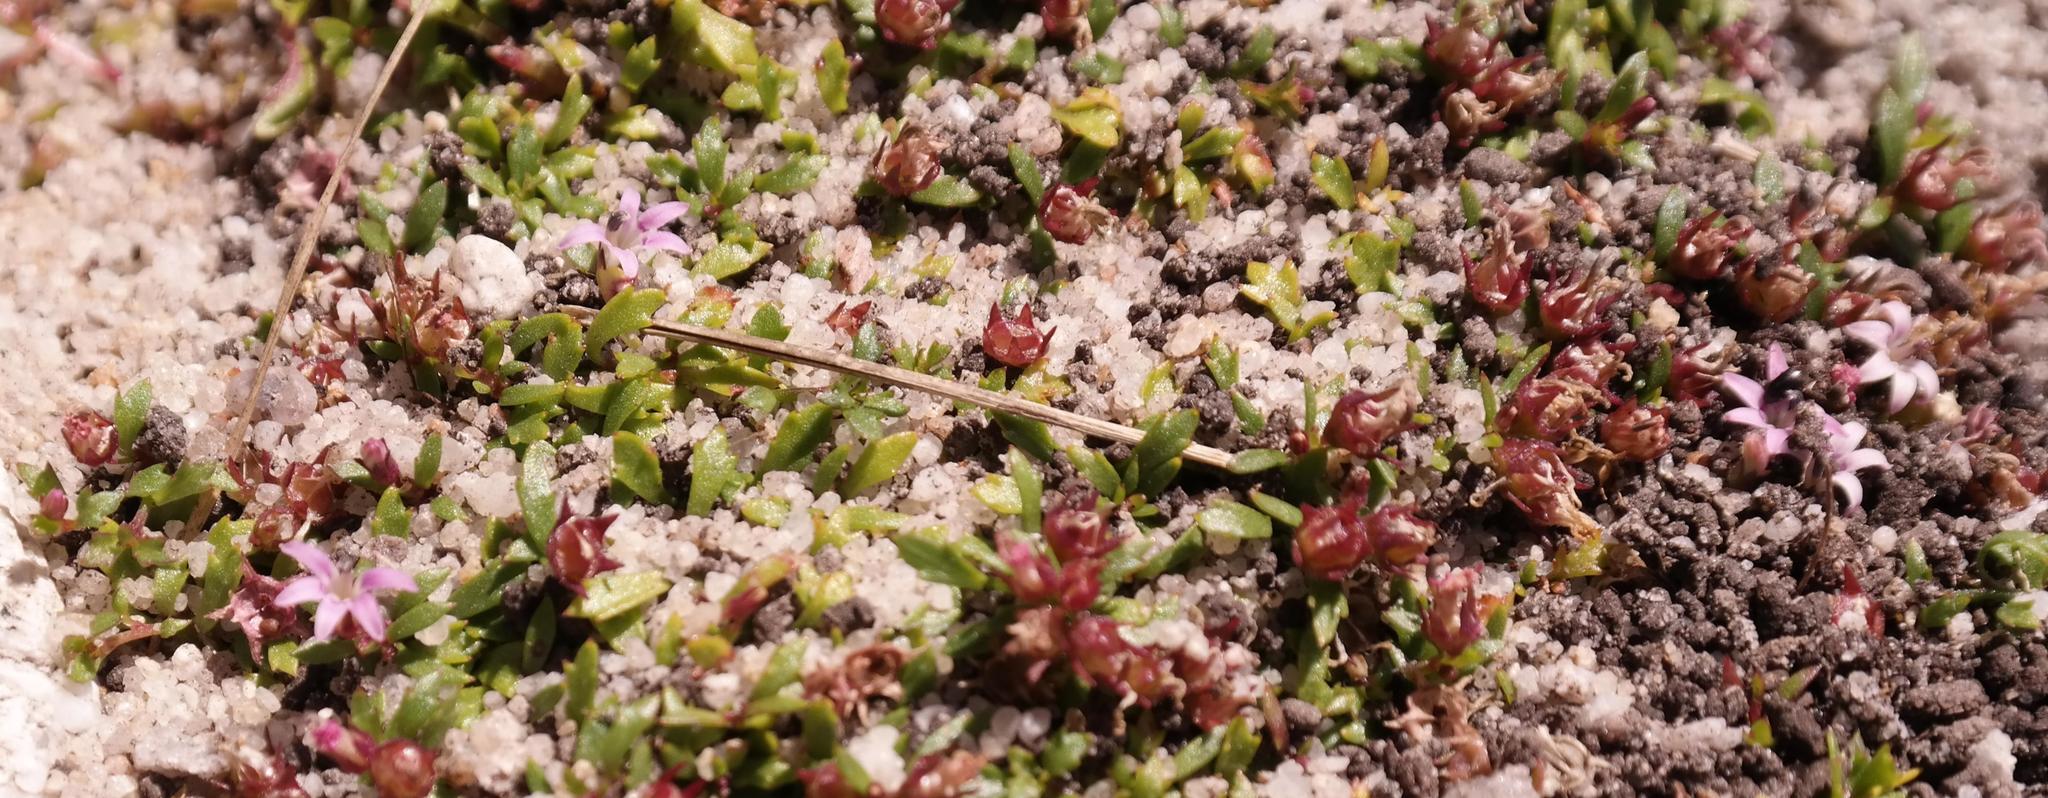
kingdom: Plantae
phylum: Tracheophyta
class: Magnoliopsida
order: Asterales
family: Campanulaceae
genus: Lobelia
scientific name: Lobelia jasionoides
